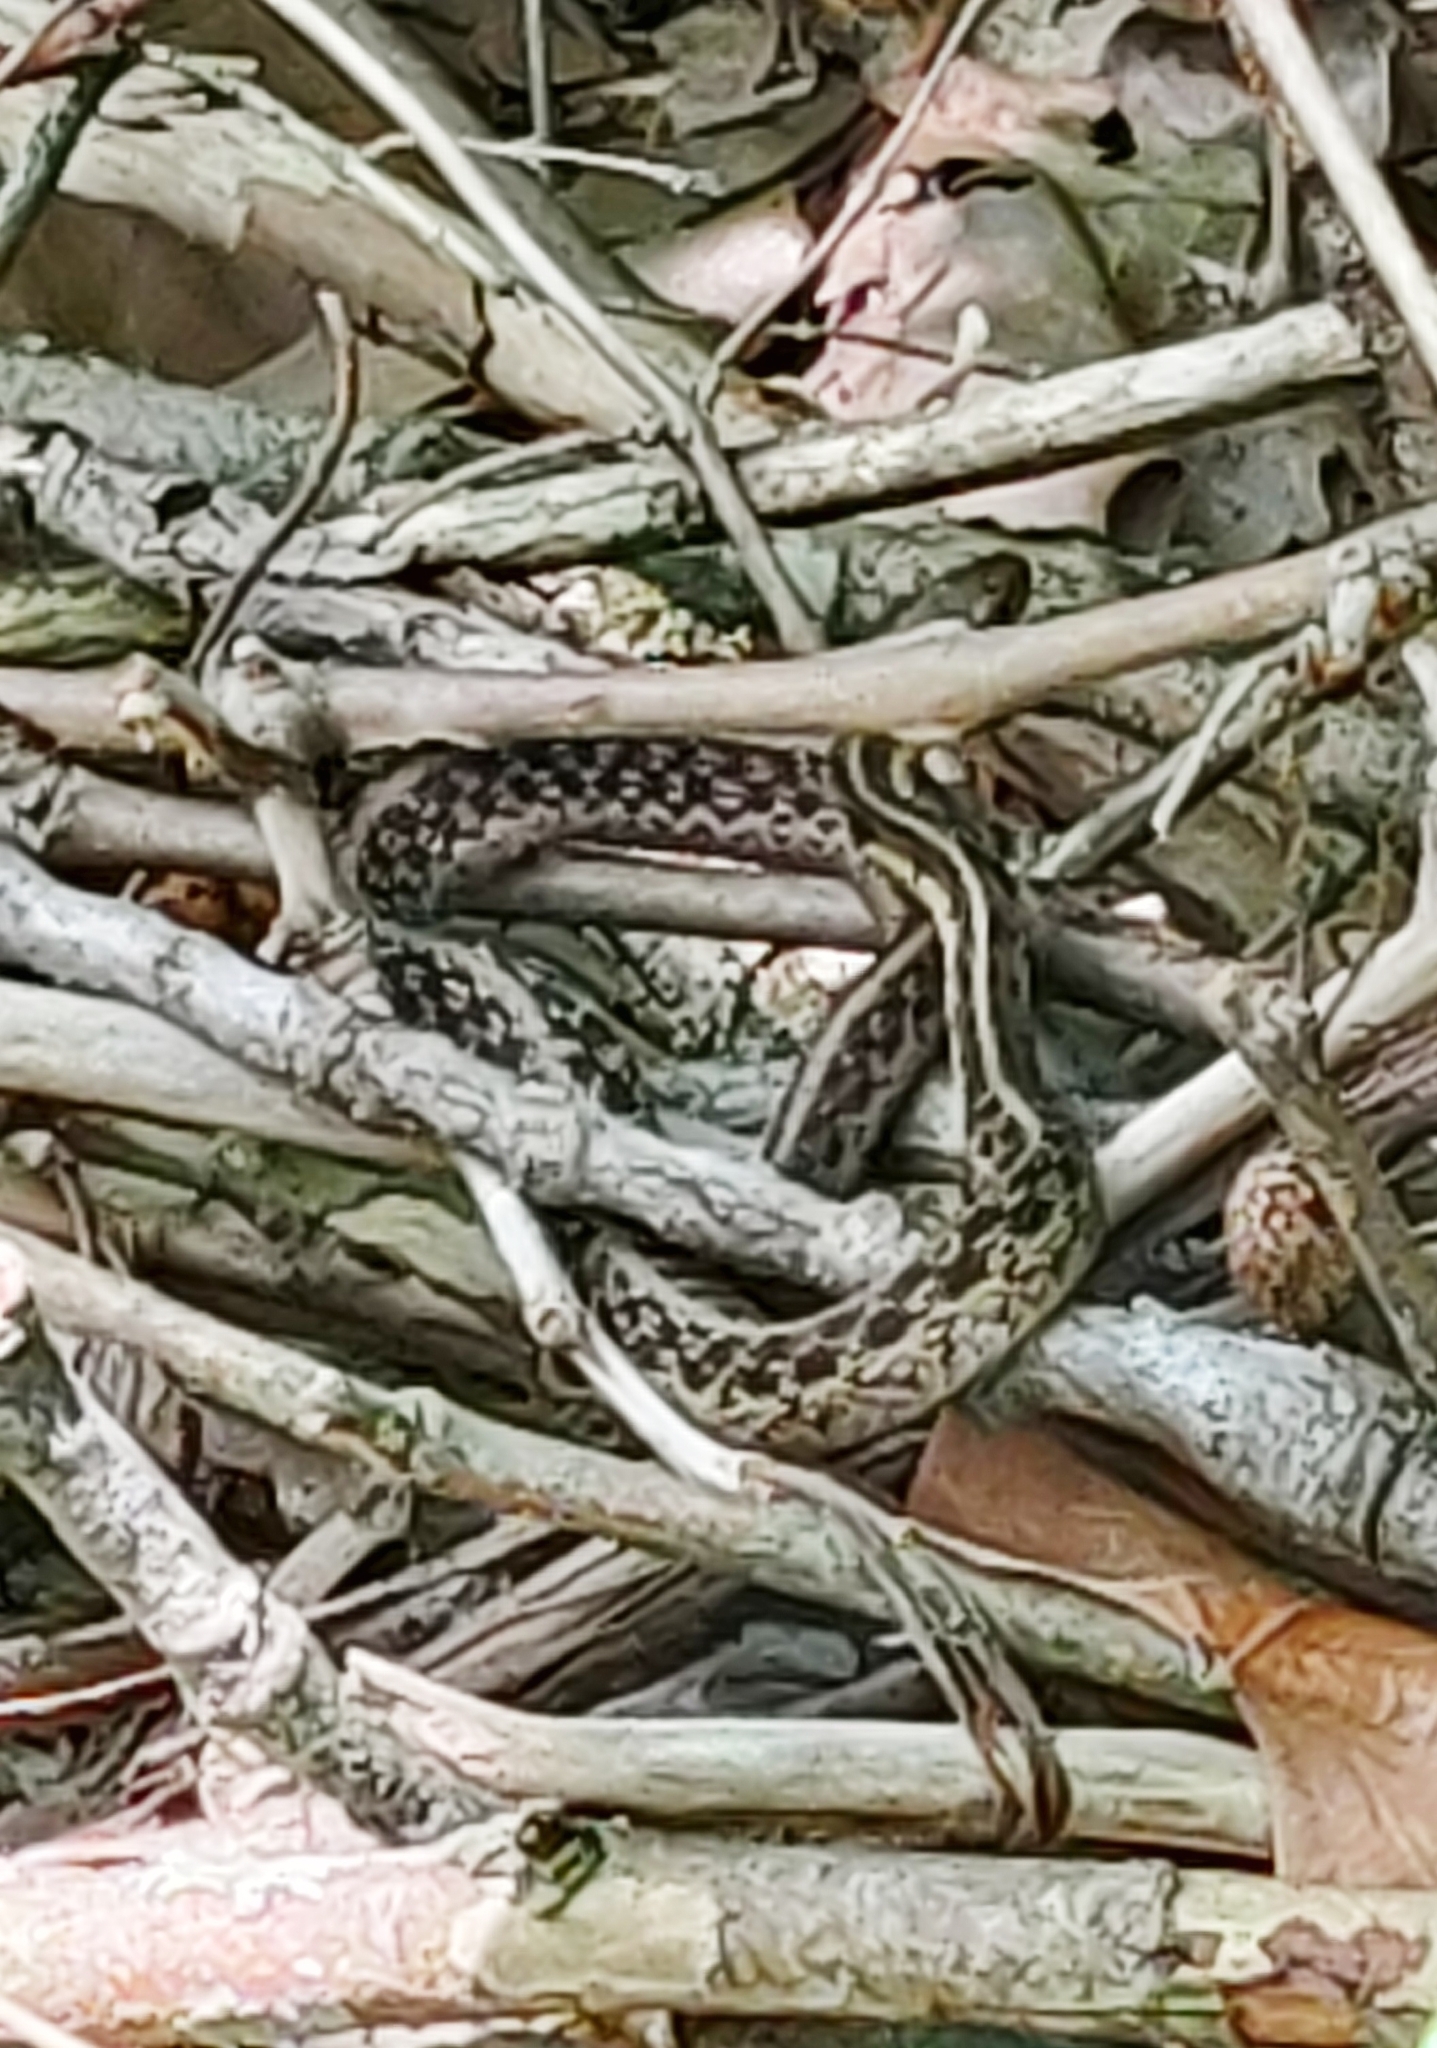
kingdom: Animalia
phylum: Chordata
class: Squamata
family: Colubridae
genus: Thamnophis
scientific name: Thamnophis sirtalis
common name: Common garter snake
